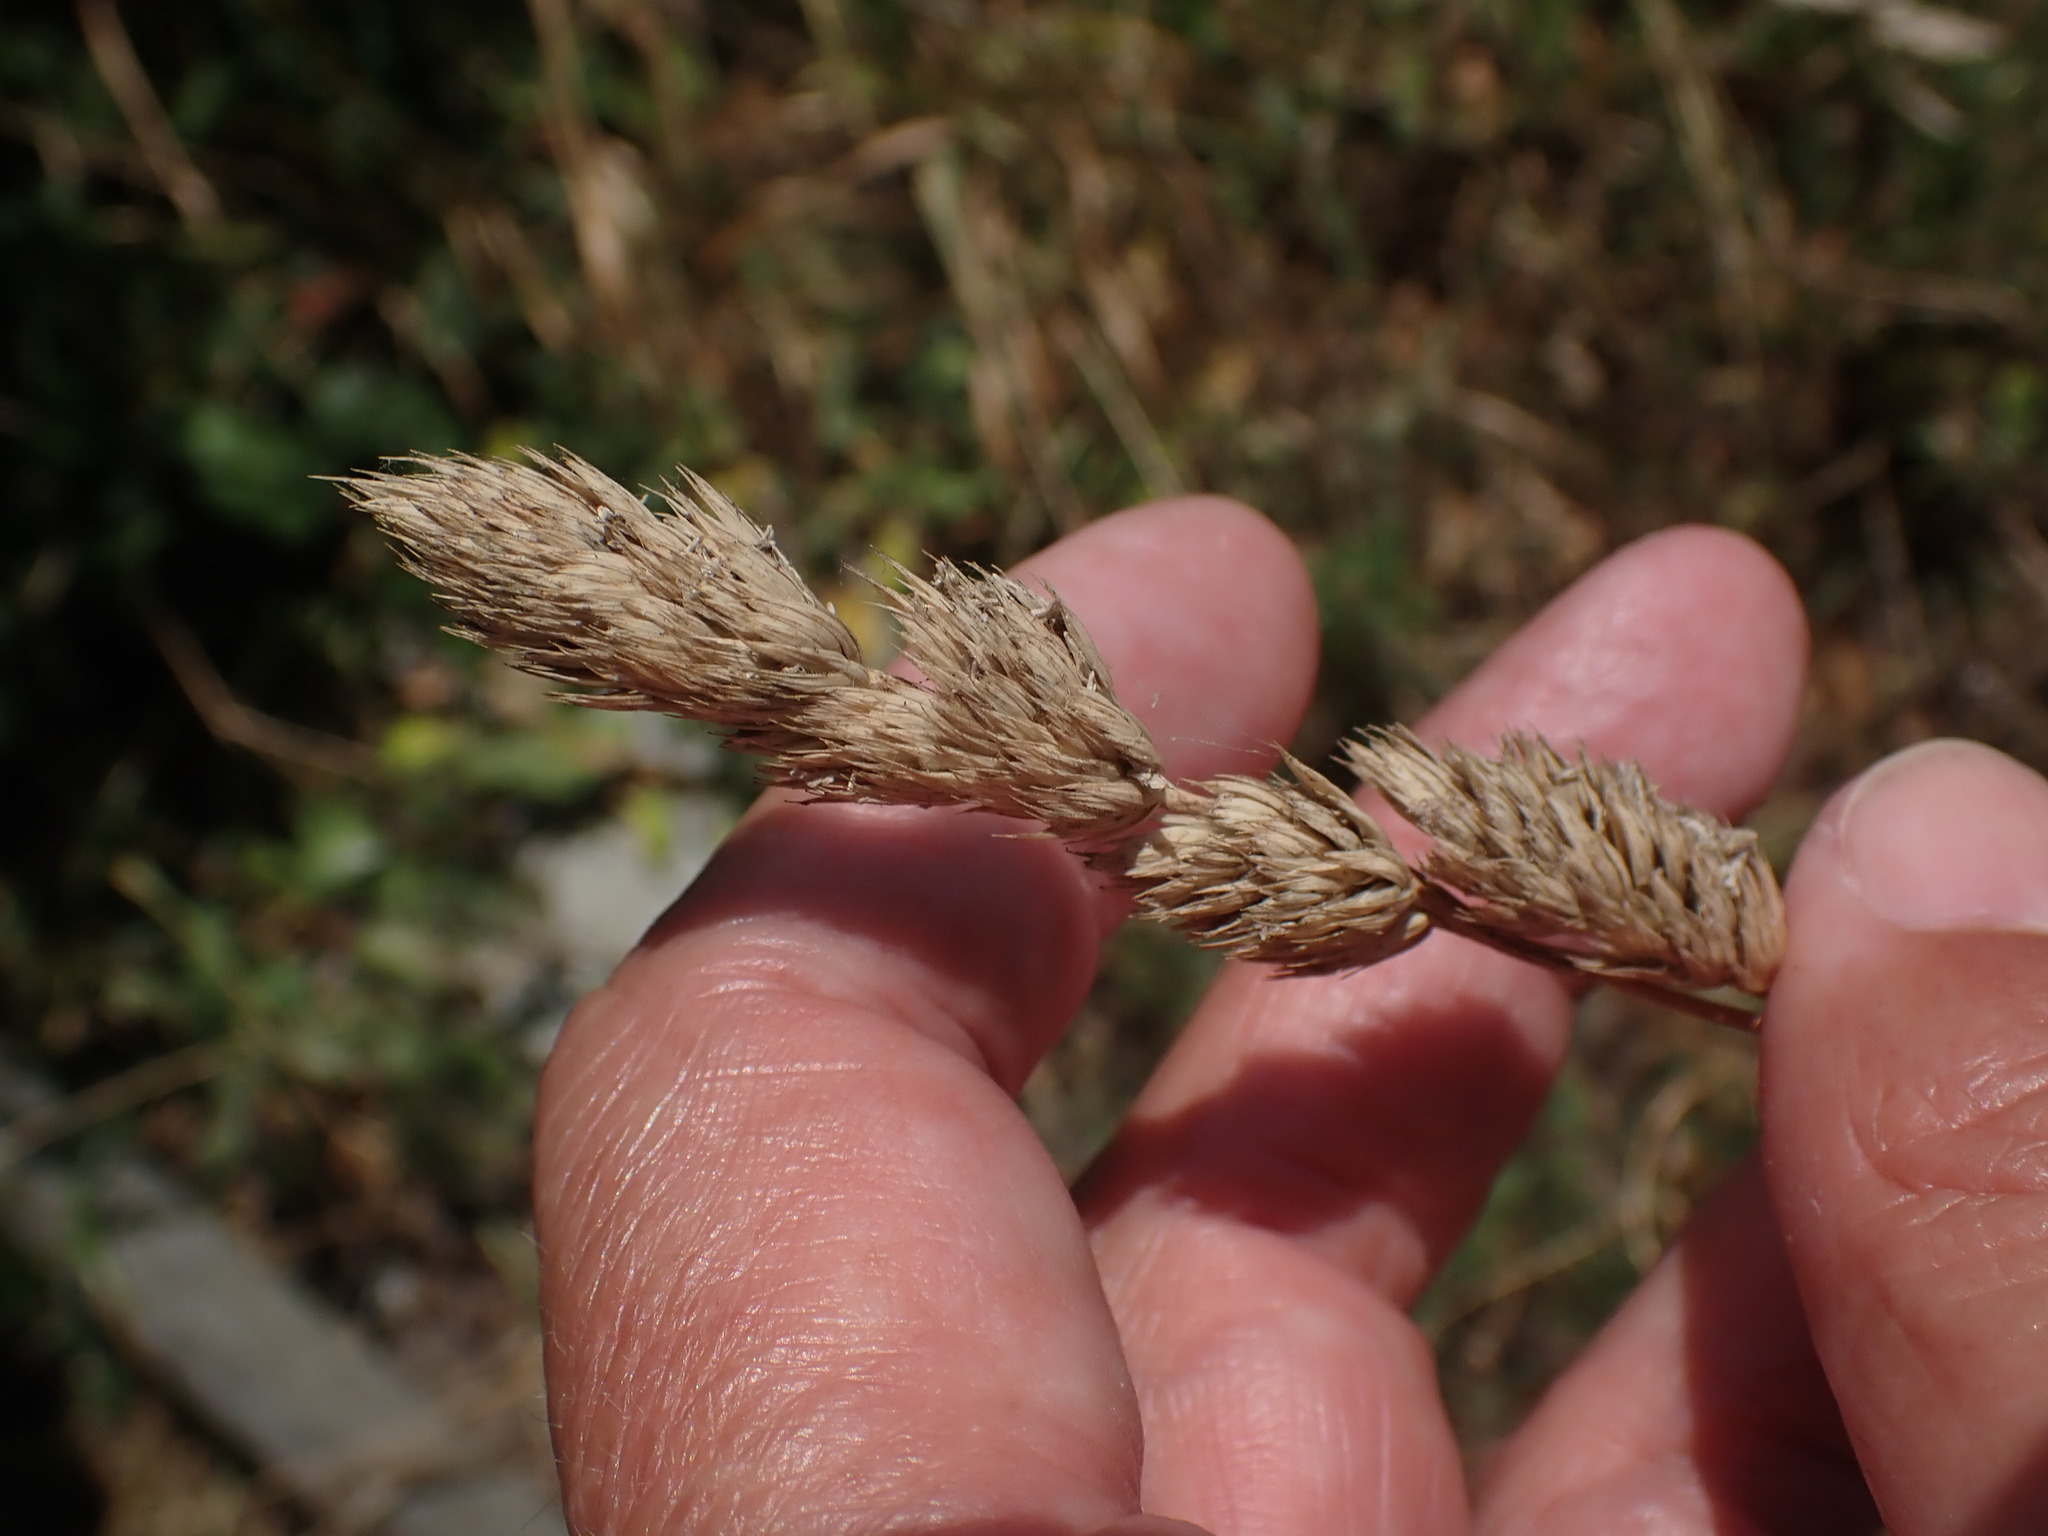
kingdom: Plantae
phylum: Tracheophyta
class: Liliopsida
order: Poales
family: Poaceae
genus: Dactylis
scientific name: Dactylis glomerata
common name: Orchardgrass
